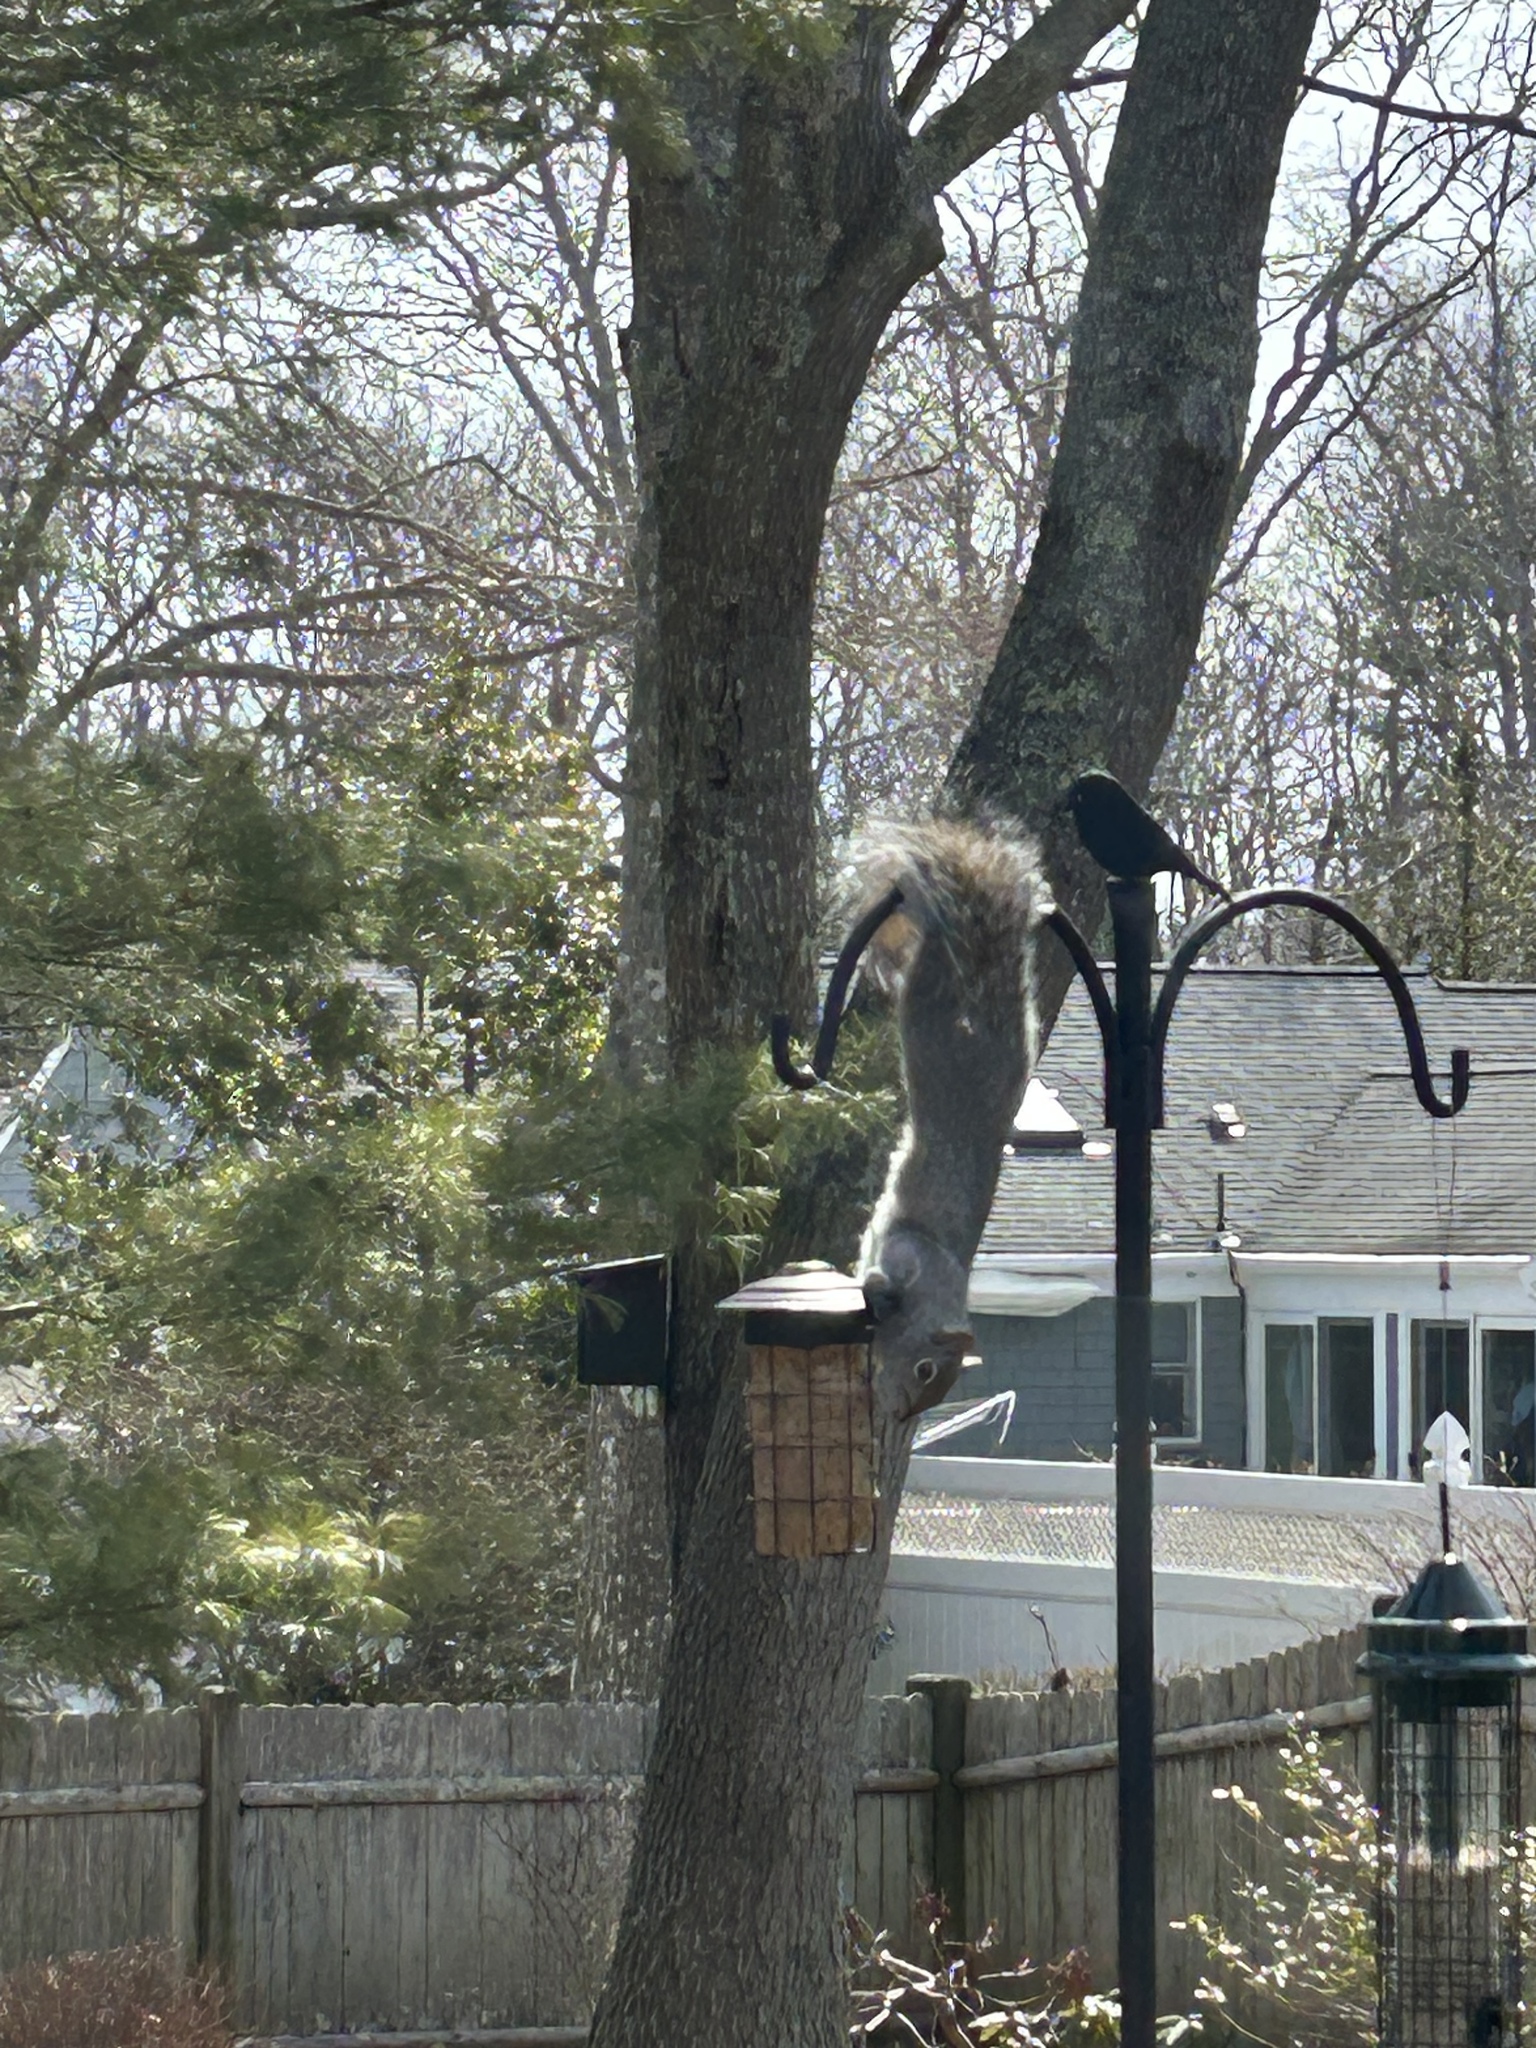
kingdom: Animalia
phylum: Chordata
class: Mammalia
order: Rodentia
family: Sciuridae
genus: Sciurus
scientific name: Sciurus carolinensis
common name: Eastern gray squirrel
